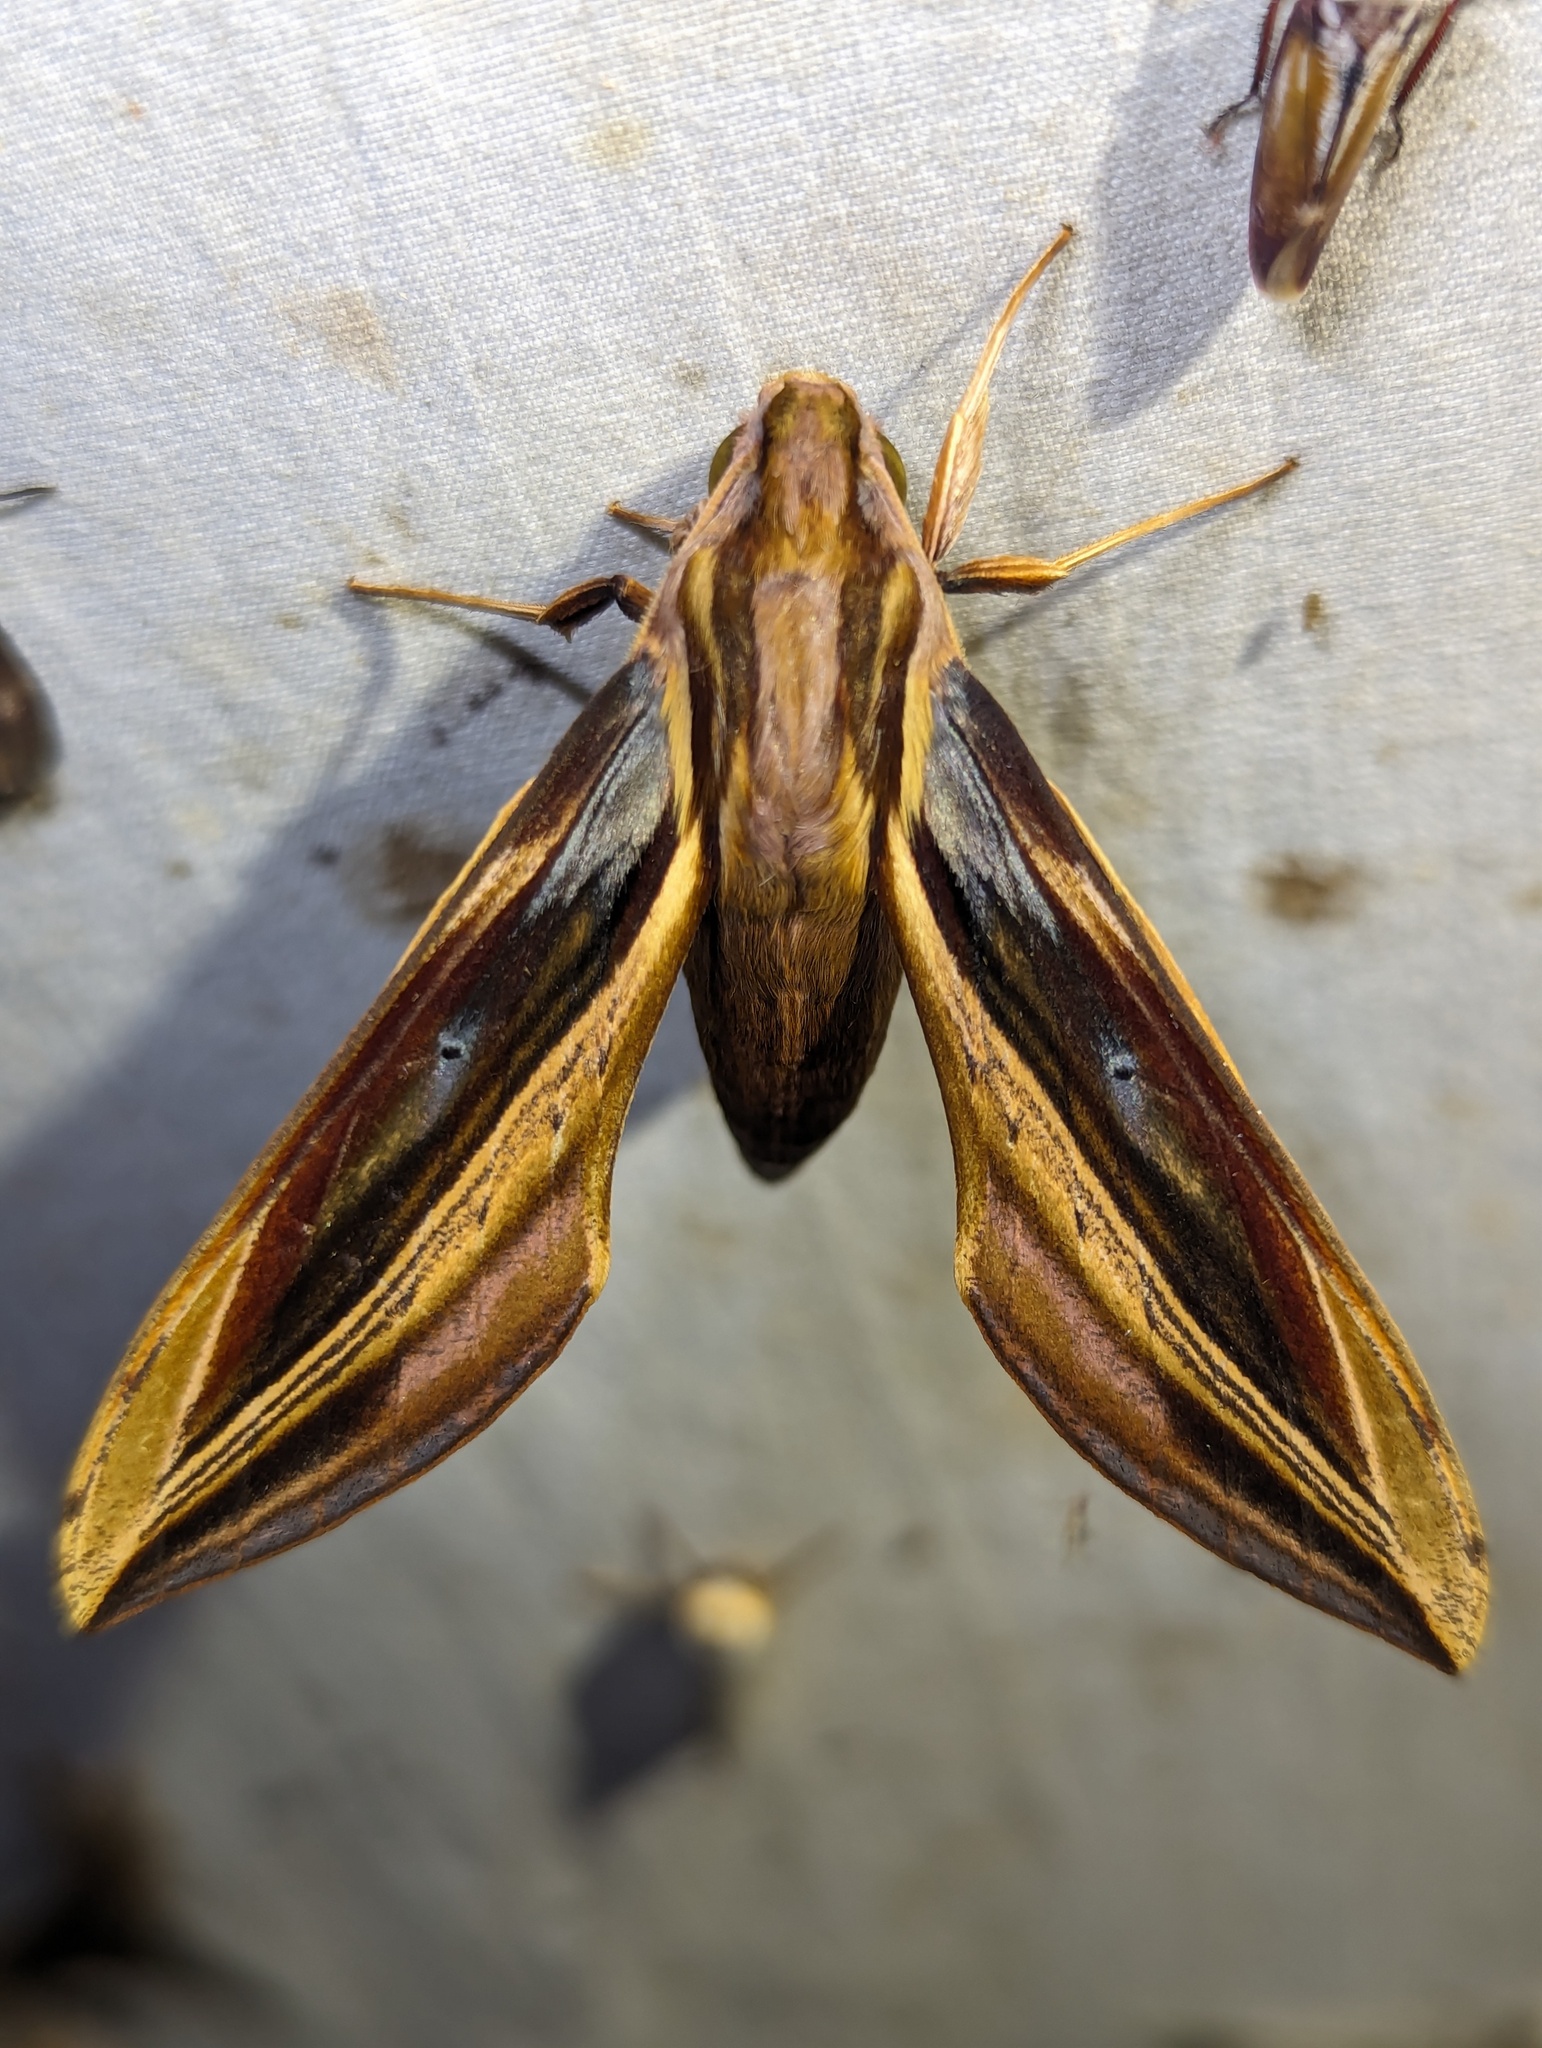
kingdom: Animalia
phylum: Arthropoda
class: Insecta
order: Lepidoptera
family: Sphingidae
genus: Xylophanes
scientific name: Xylophanes pyrrhus
